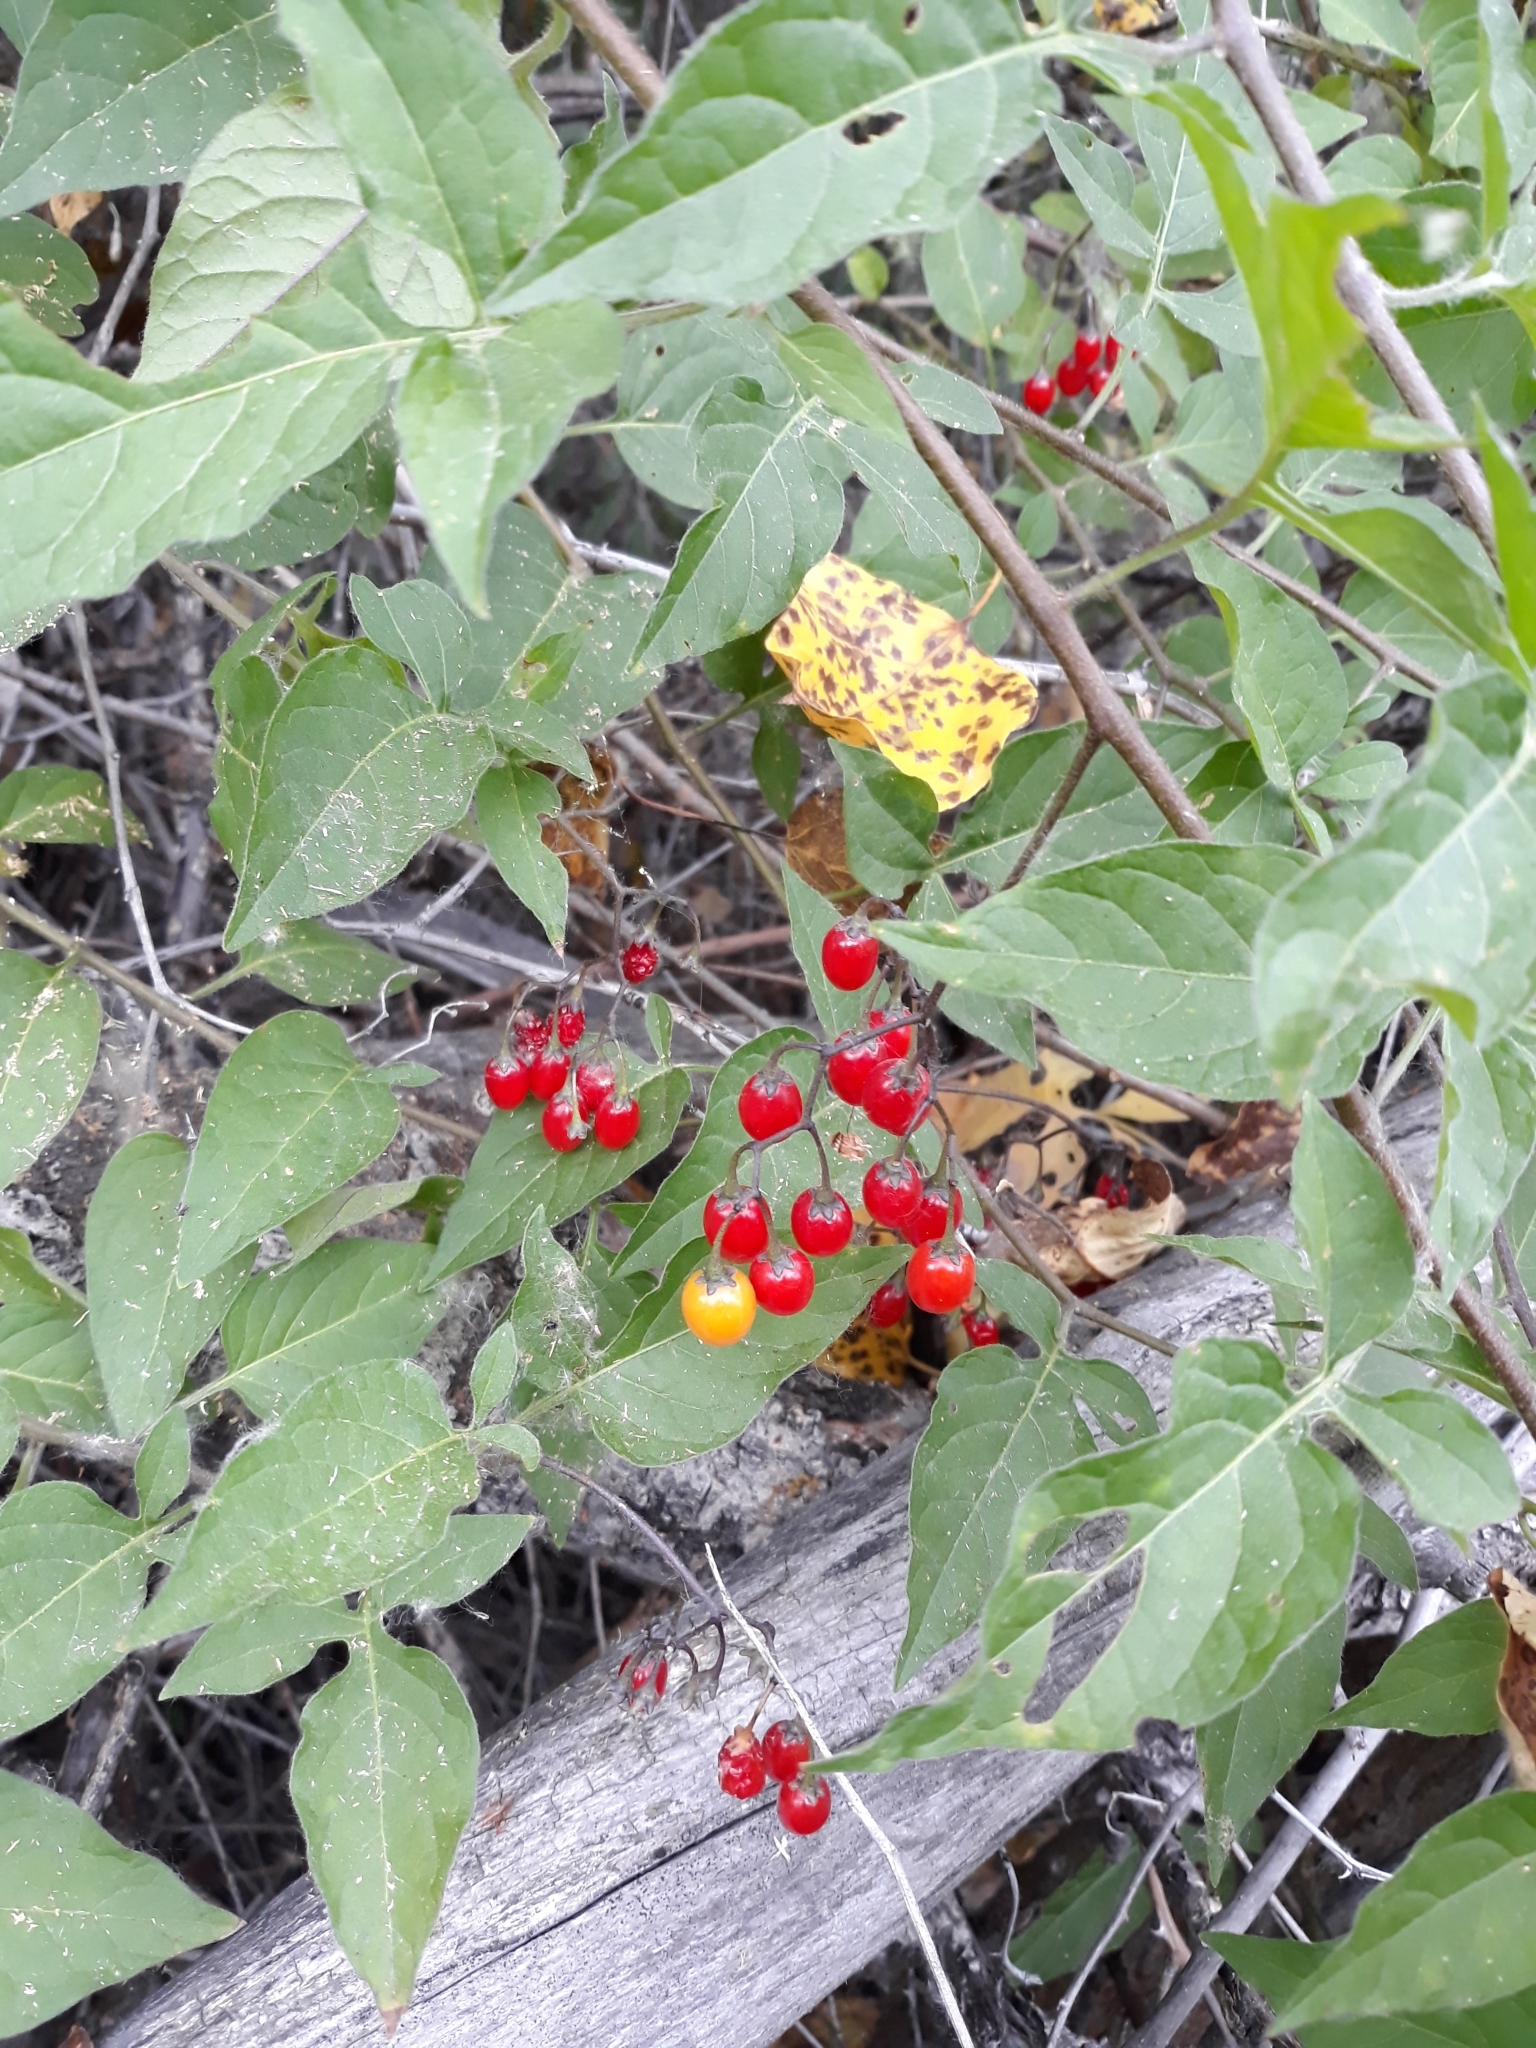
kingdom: Plantae
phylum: Tracheophyta
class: Magnoliopsida
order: Solanales
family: Solanaceae
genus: Solanum
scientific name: Solanum dulcamara
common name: Climbing nightshade
